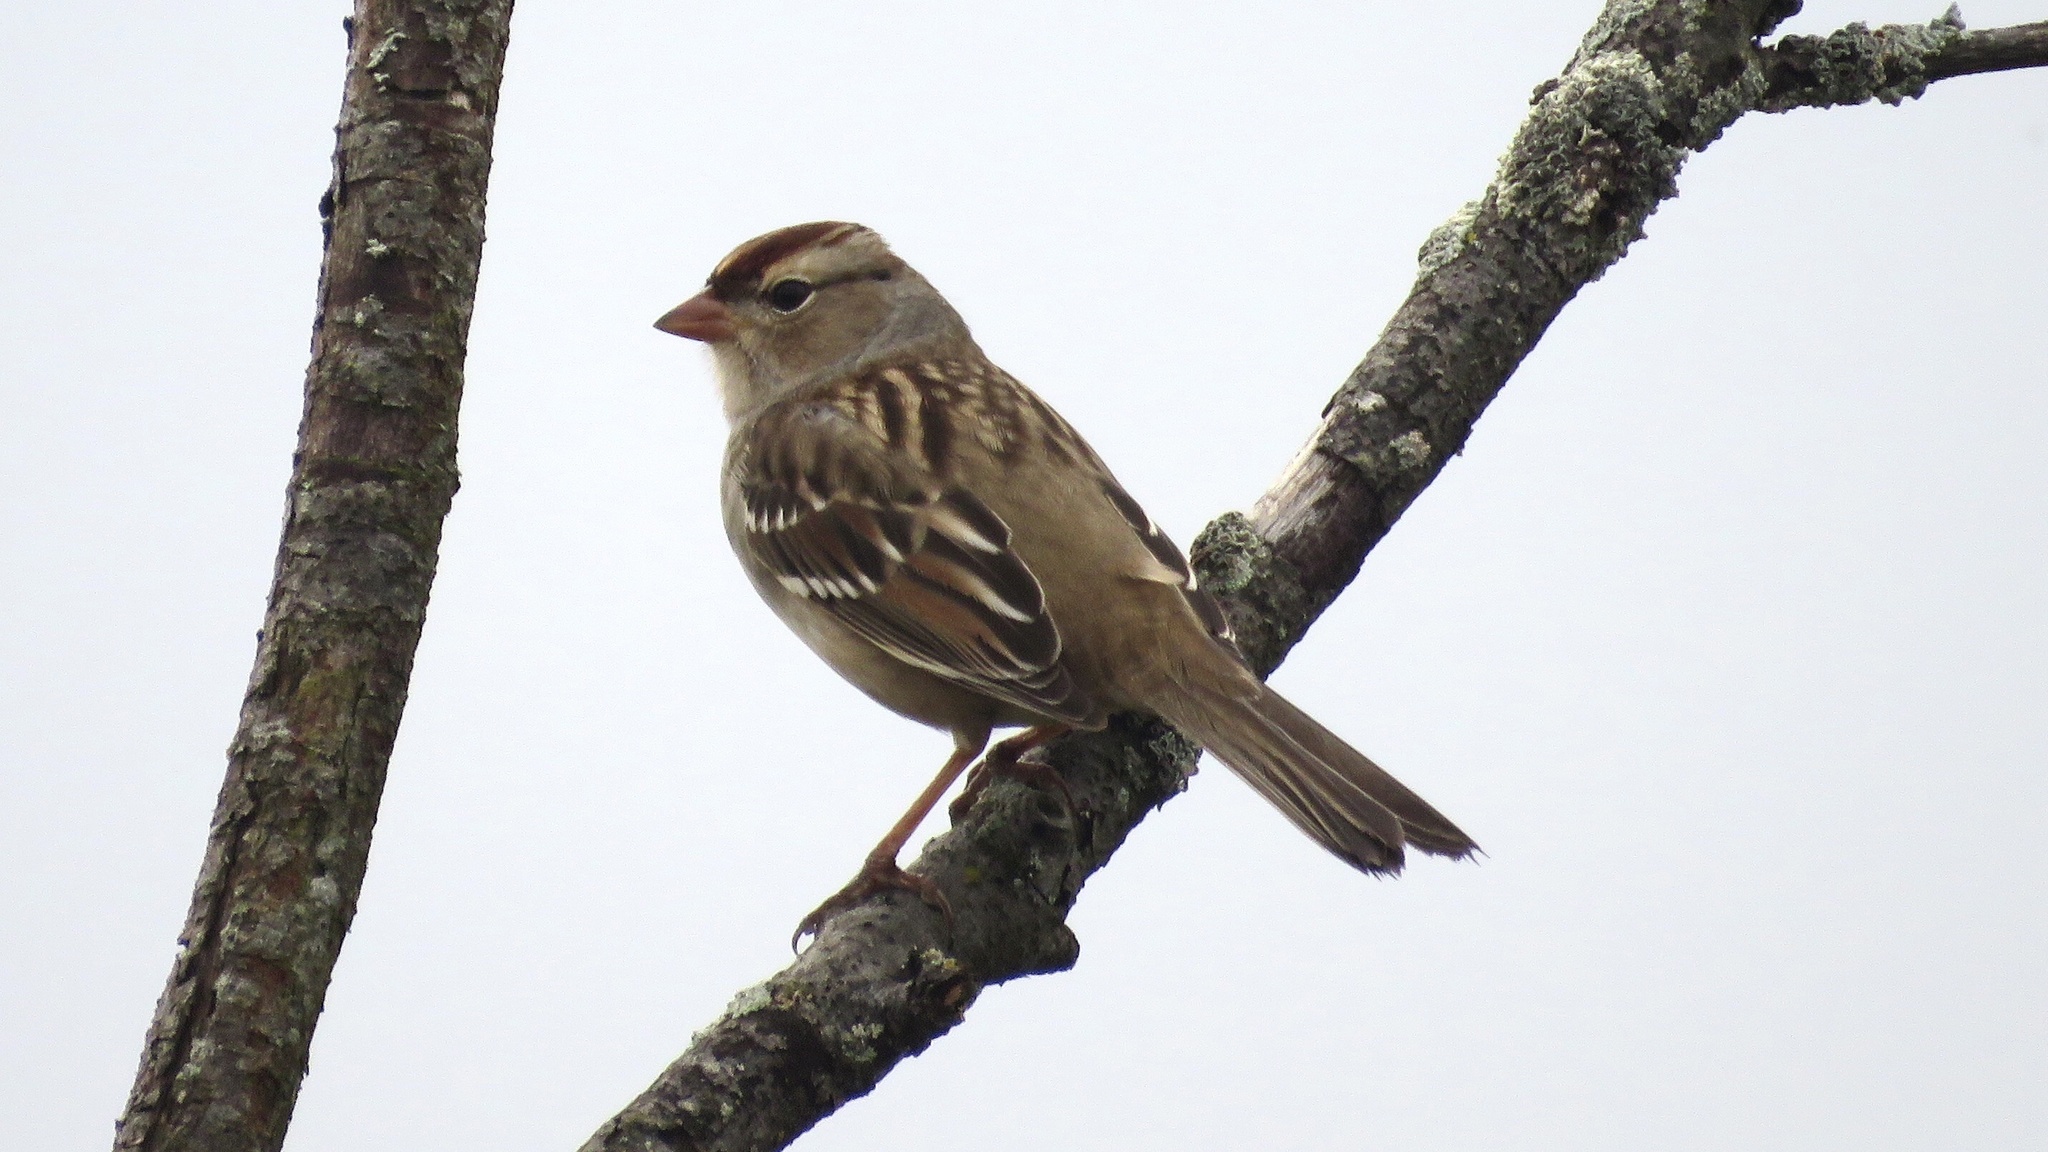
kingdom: Animalia
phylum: Chordata
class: Aves
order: Passeriformes
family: Passerellidae
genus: Zonotrichia
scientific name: Zonotrichia leucophrys
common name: White-crowned sparrow
